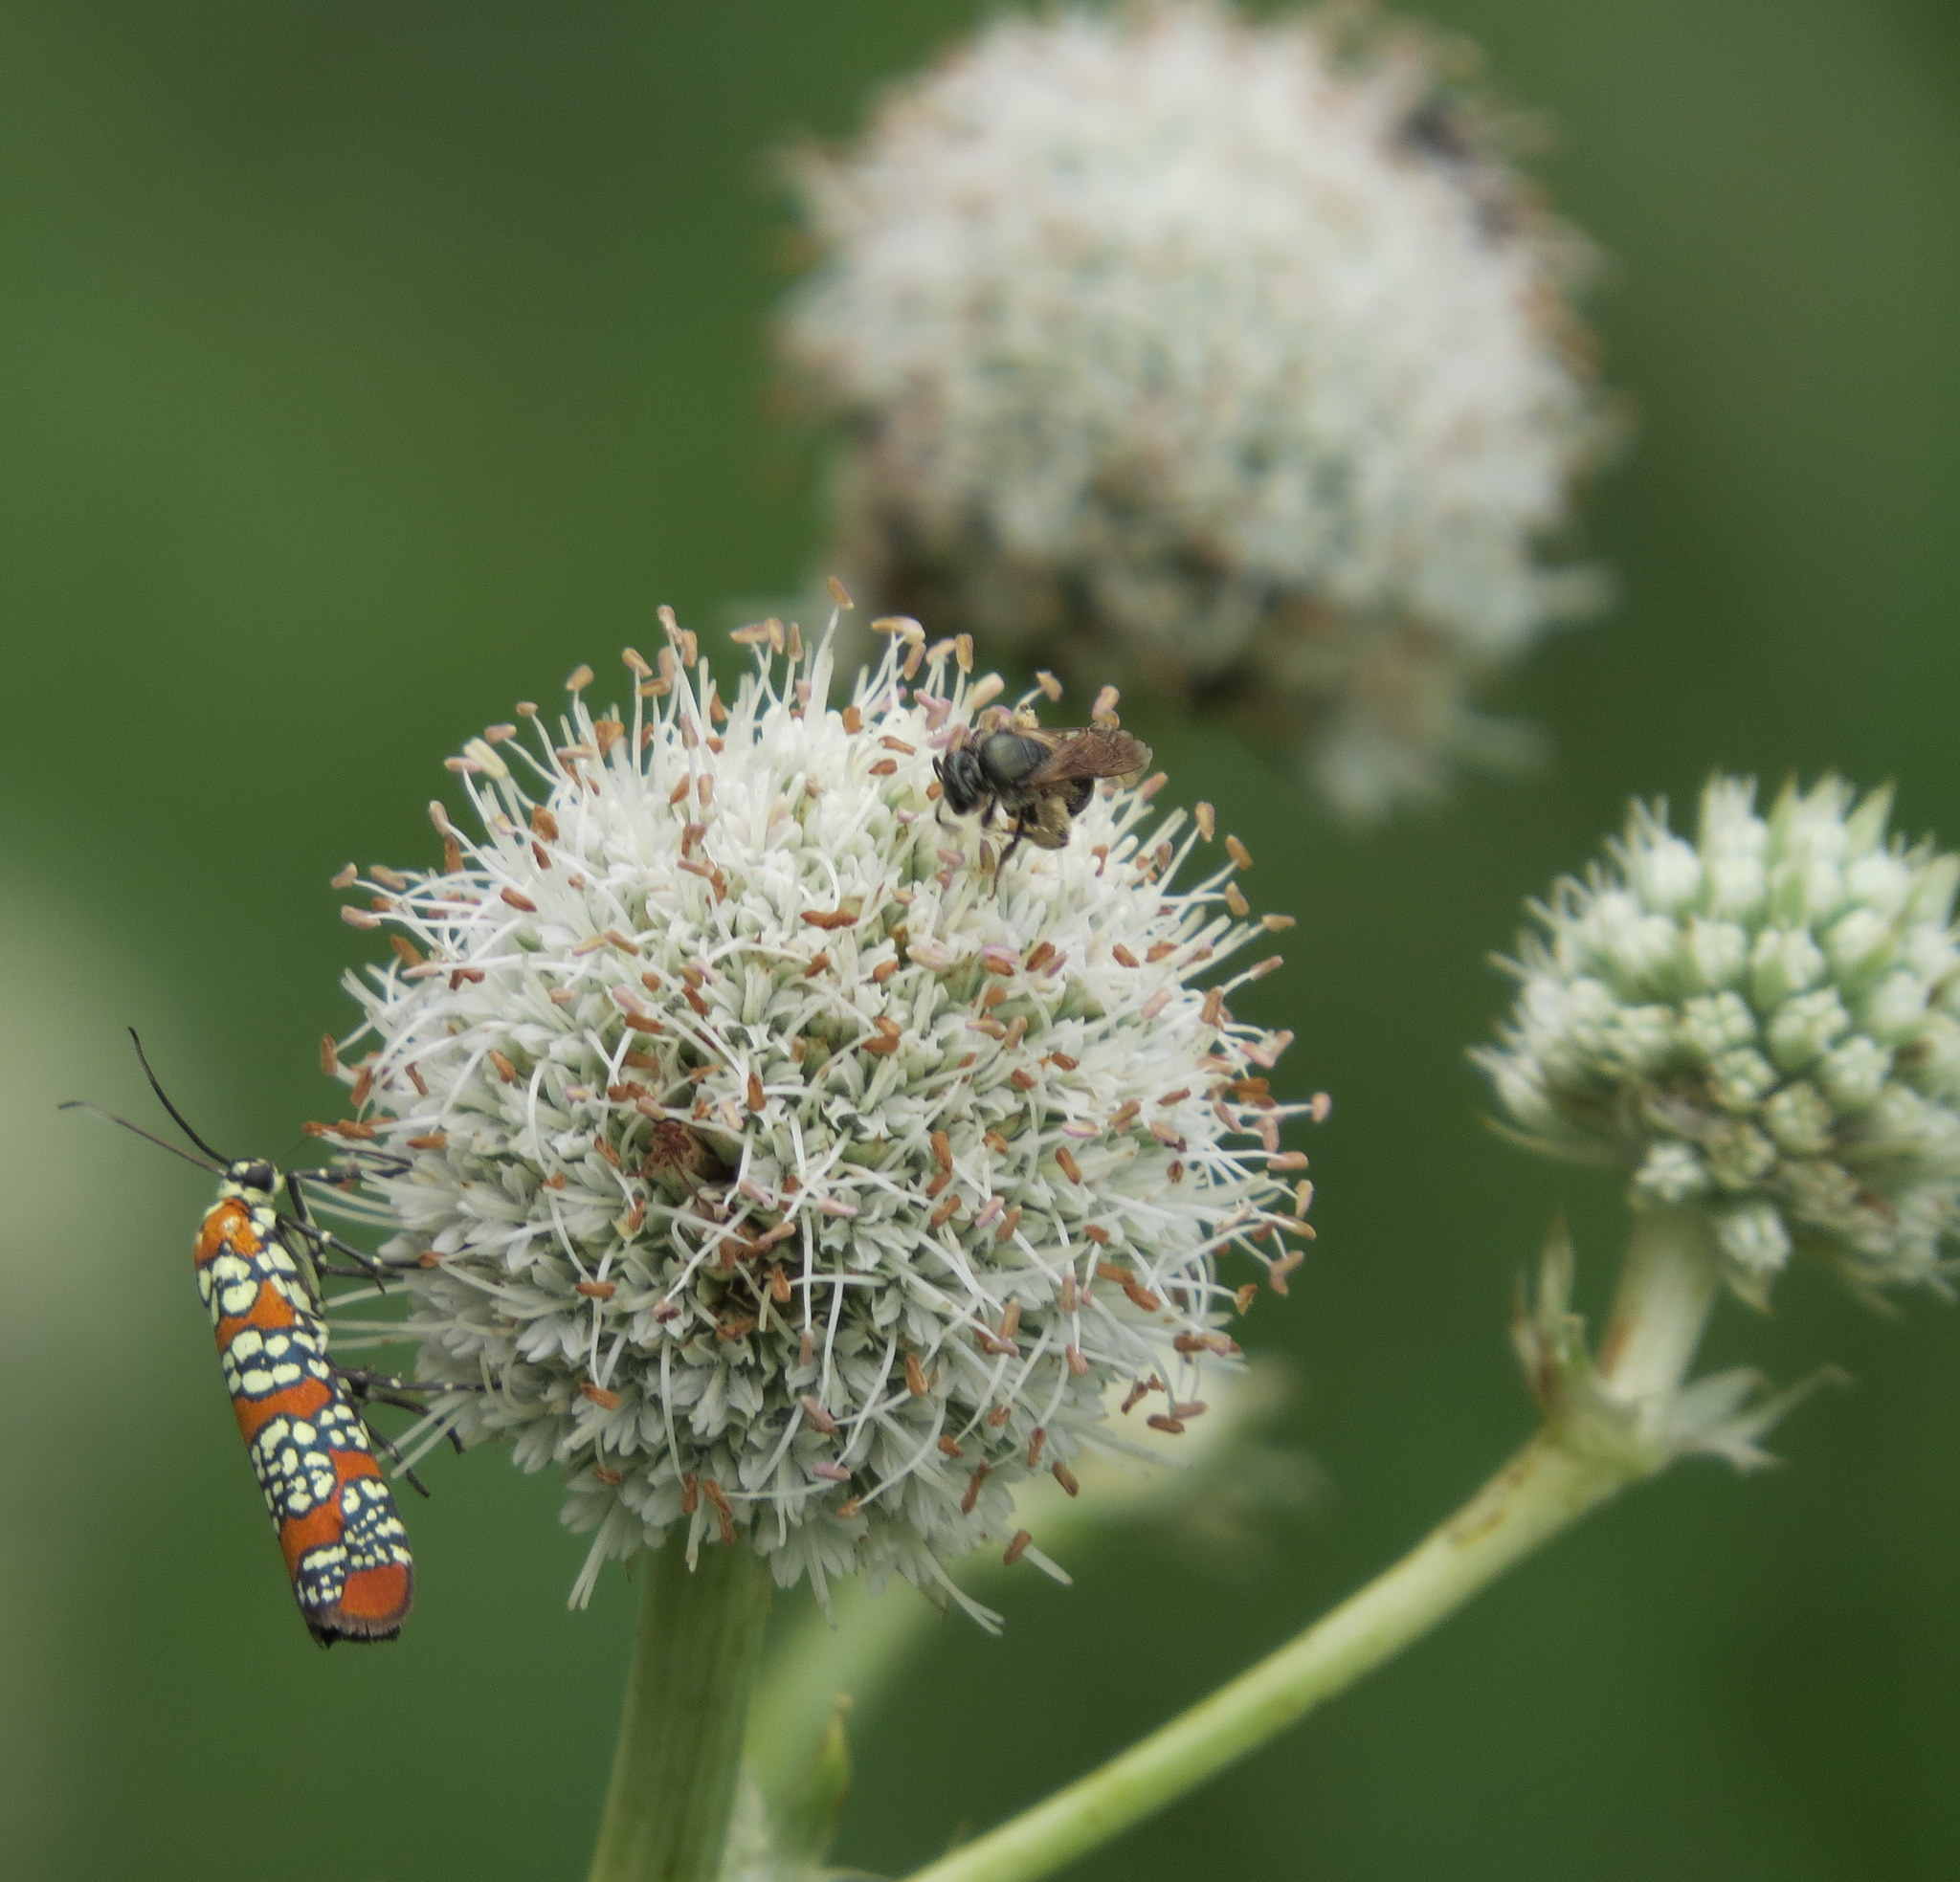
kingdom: Plantae
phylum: Tracheophyta
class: Magnoliopsida
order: Apiales
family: Apiaceae
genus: Eryngium
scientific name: Eryngium yuccifolium
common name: Button eryngo
